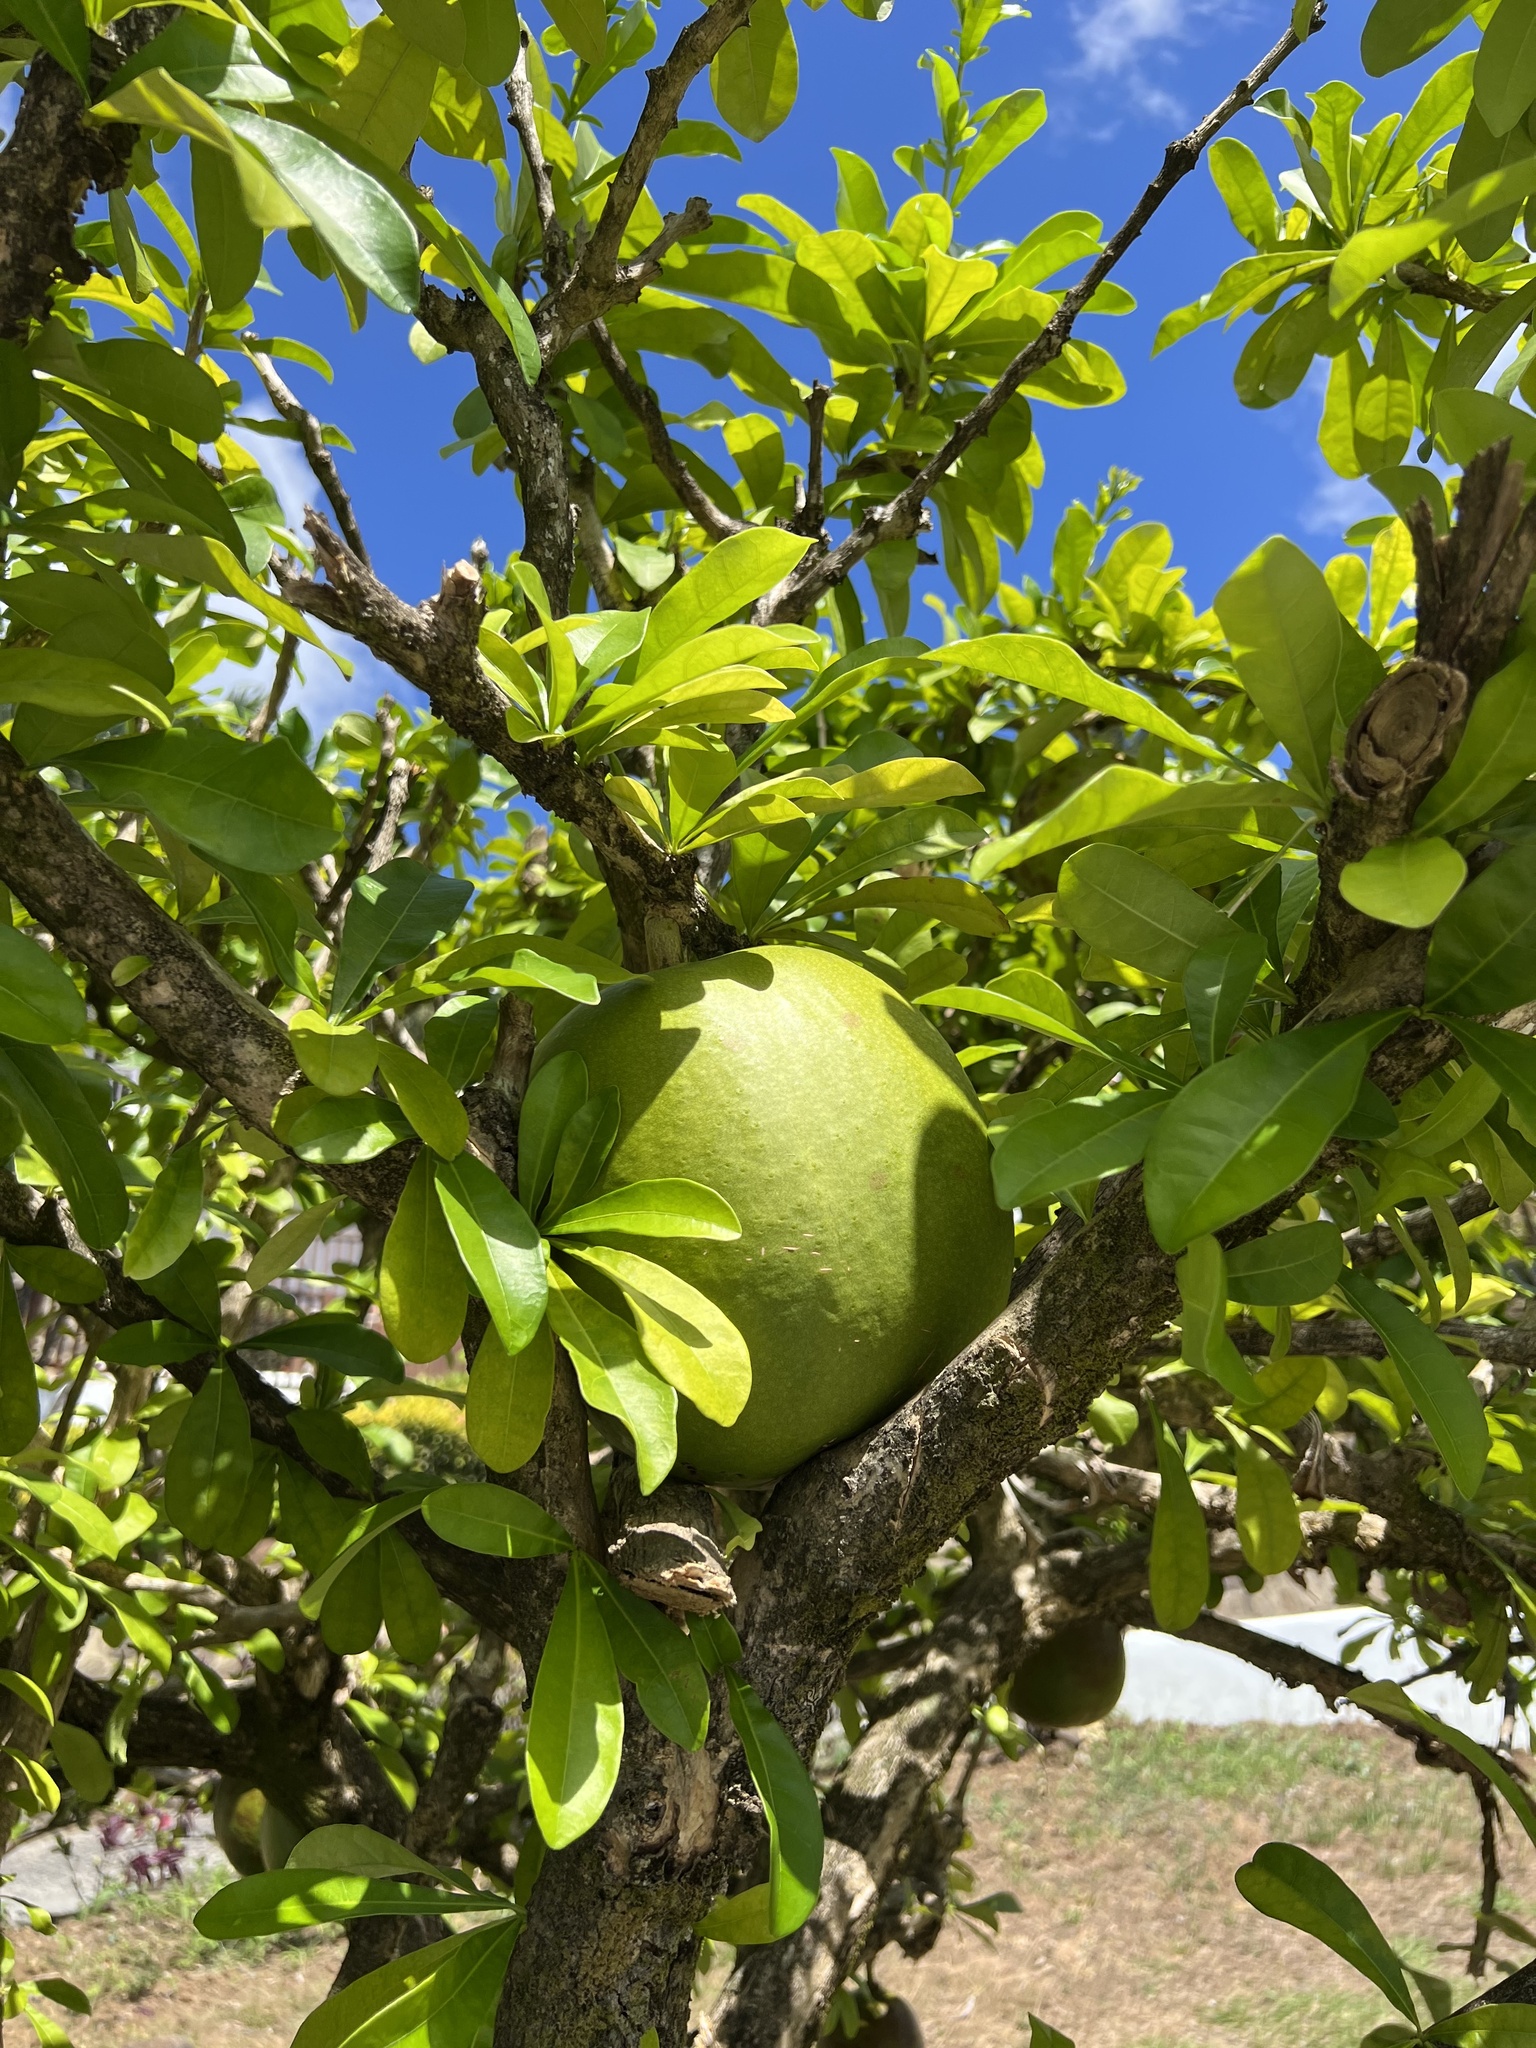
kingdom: Plantae
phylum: Tracheophyta
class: Magnoliopsida
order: Lamiales
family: Bignoniaceae
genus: Crescentia
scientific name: Crescentia cujete
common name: Calabash
